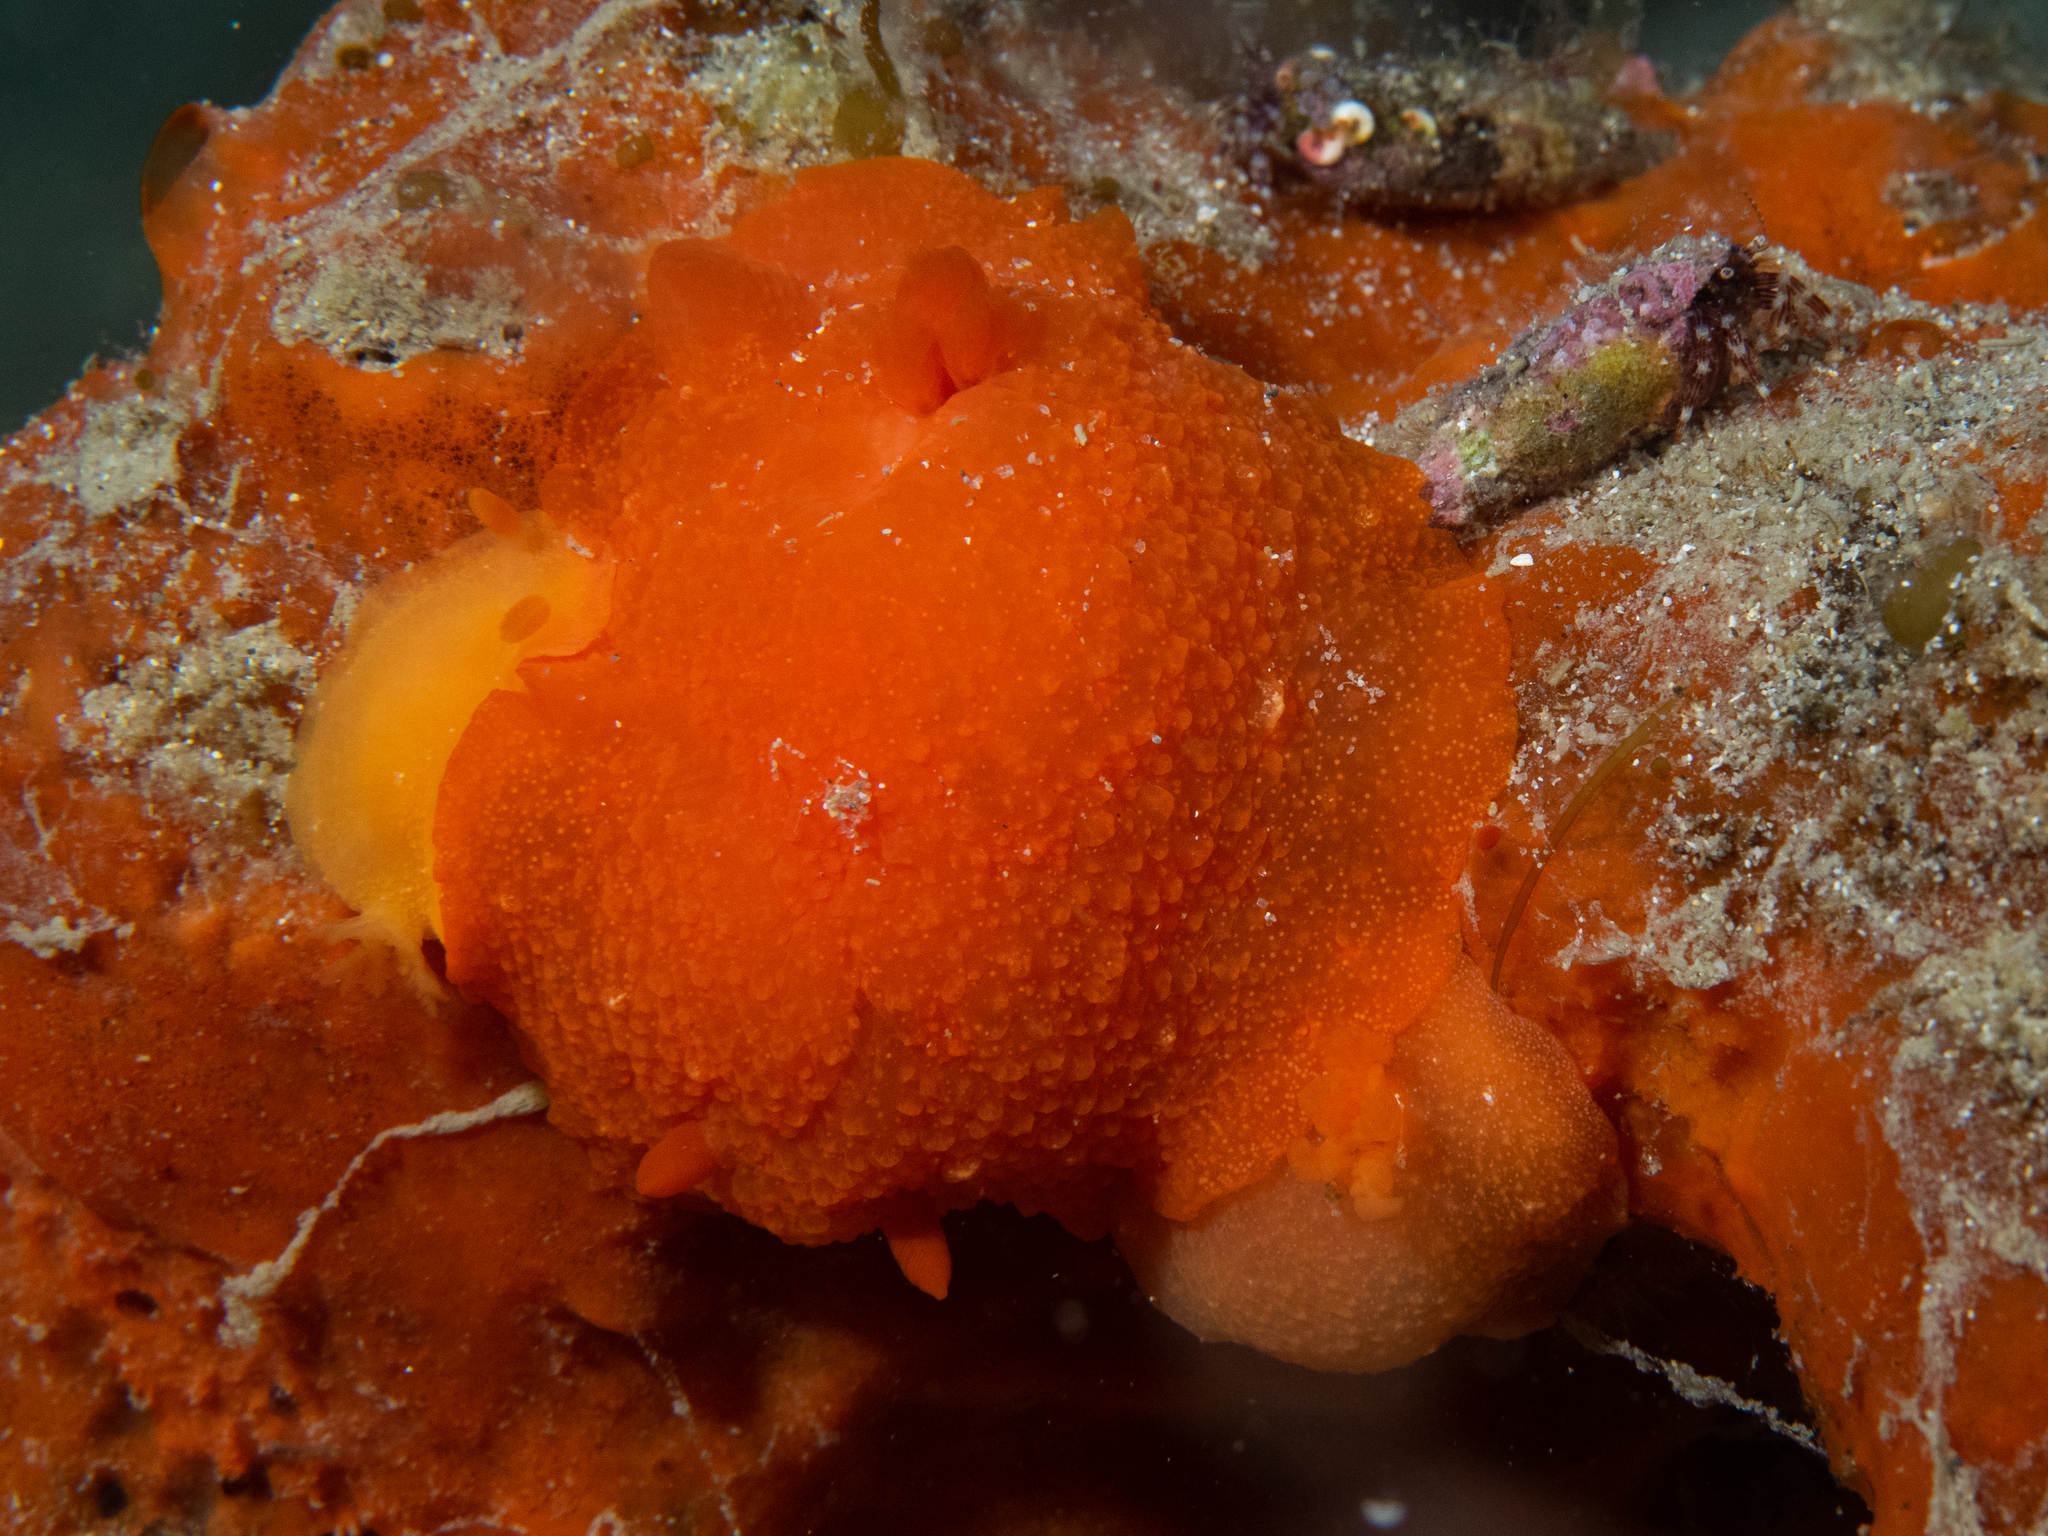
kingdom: Animalia
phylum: Mollusca
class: Gastropoda
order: Nudibranchia
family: Dendrodorididae
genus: Doriopsilla
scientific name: Doriopsilla aurea
